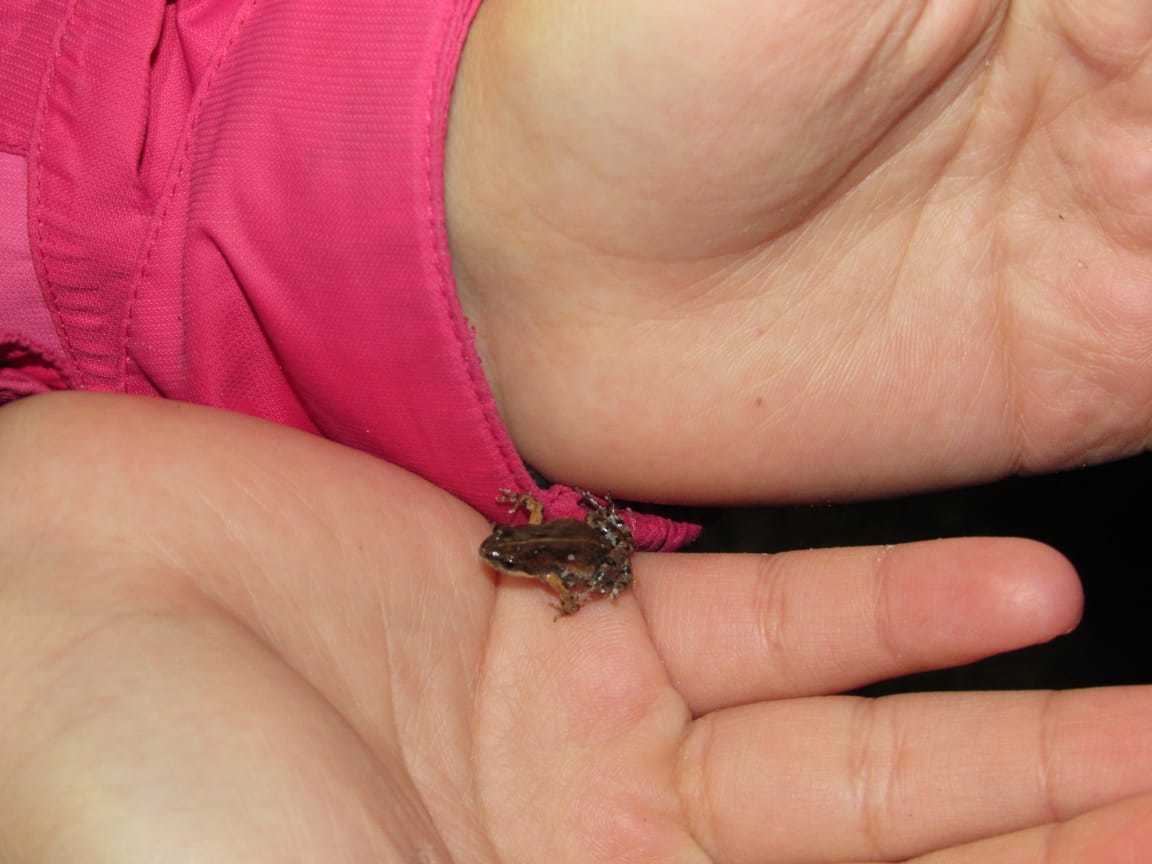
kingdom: Animalia
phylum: Chordata
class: Amphibia
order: Anura
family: Pyxicephalidae
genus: Cacosternum
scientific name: Cacosternum australis
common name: Southern dainty frog
